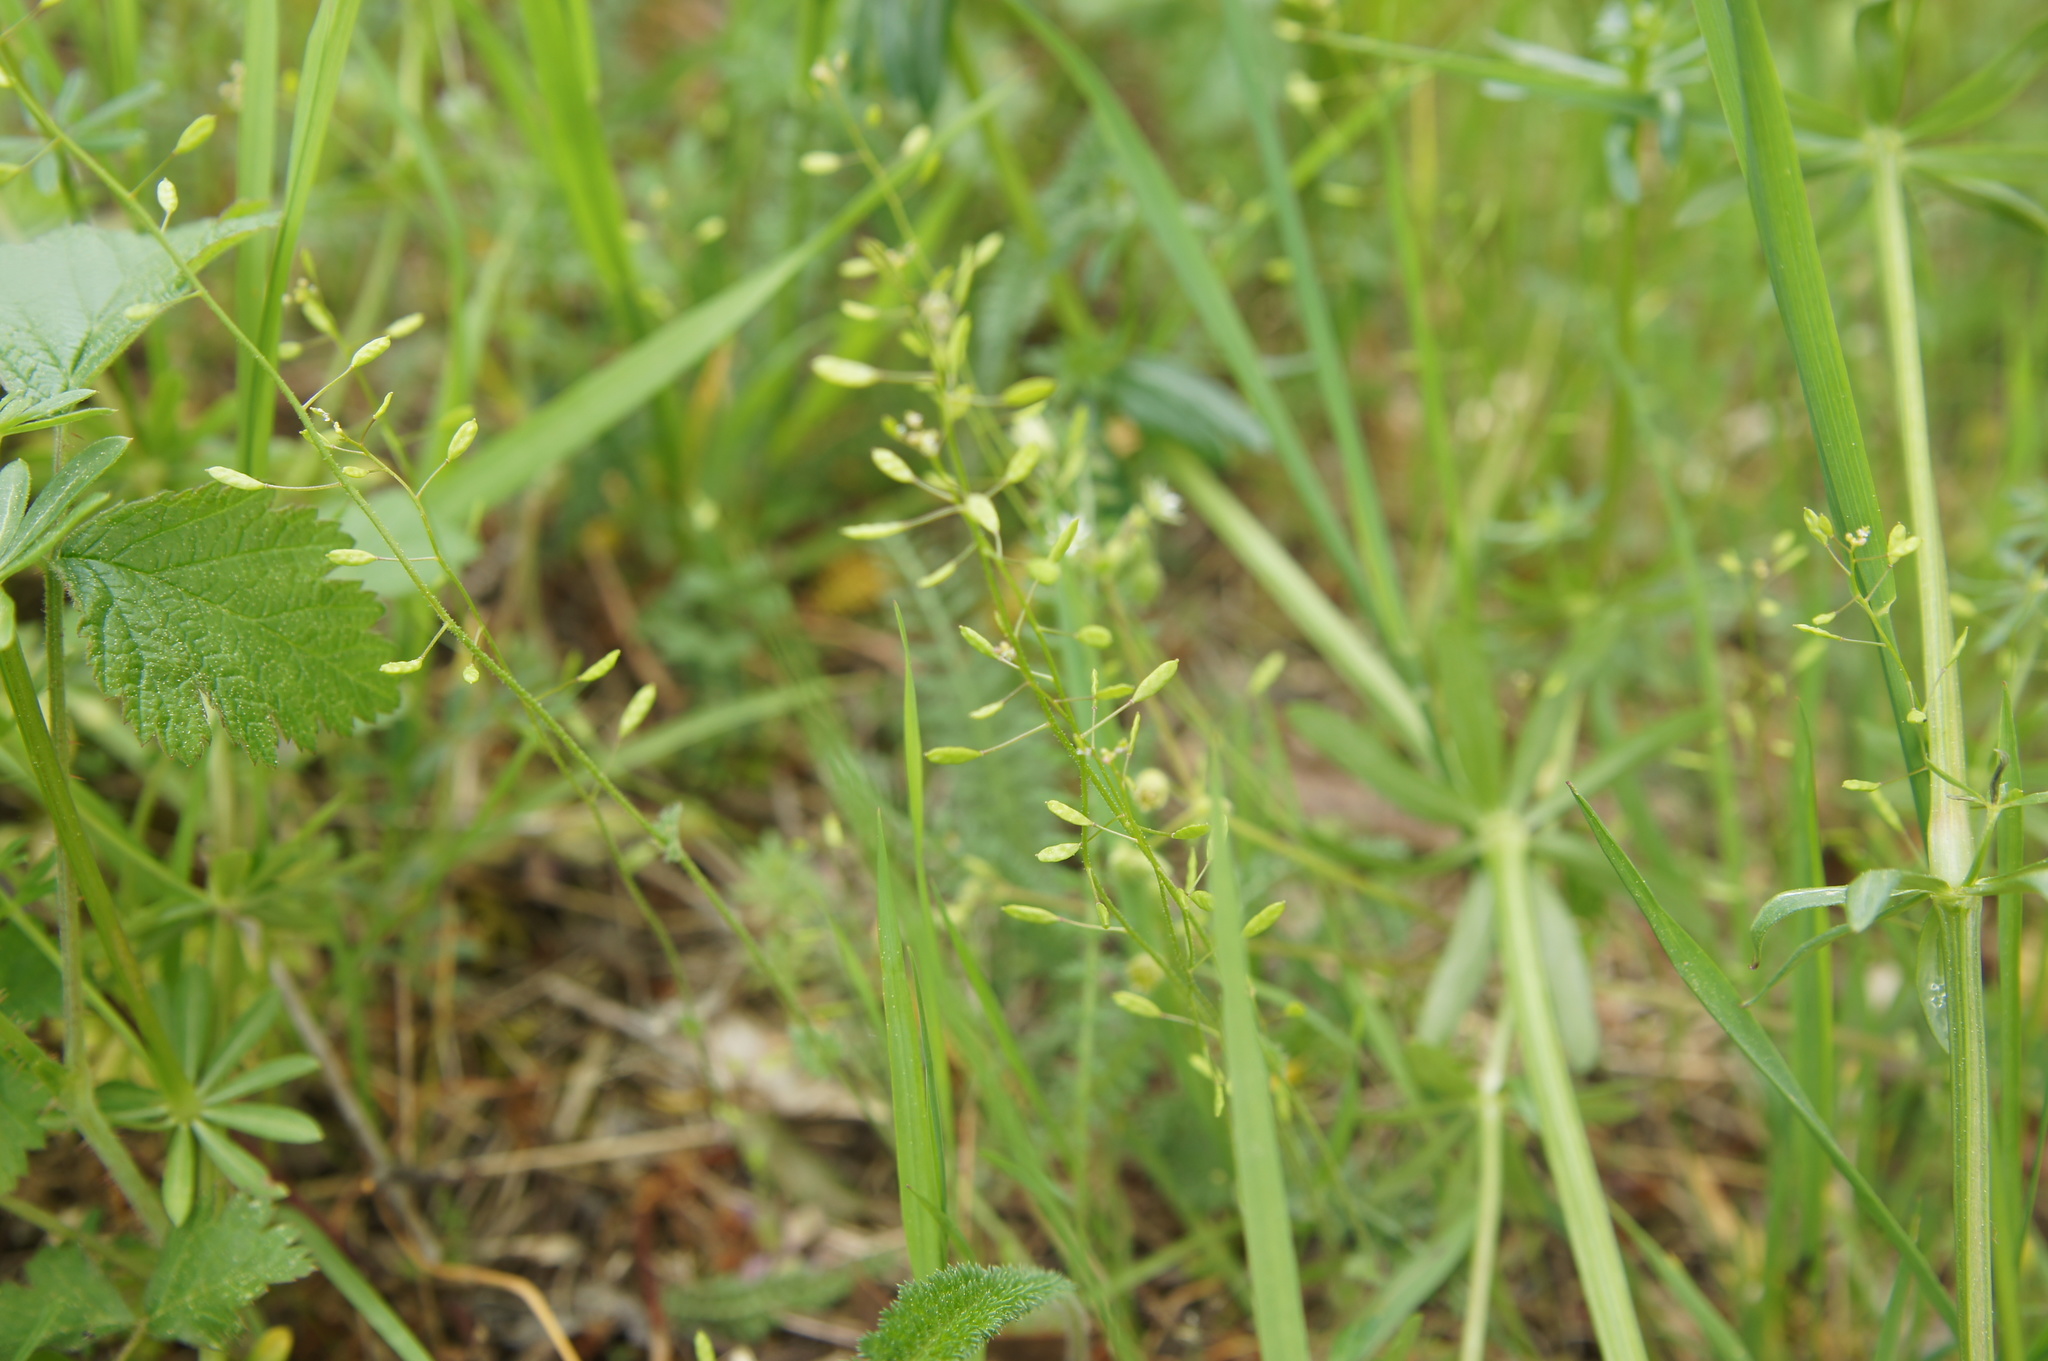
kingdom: Plantae
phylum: Tracheophyta
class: Magnoliopsida
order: Brassicales
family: Brassicaceae
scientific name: Brassicaceae
